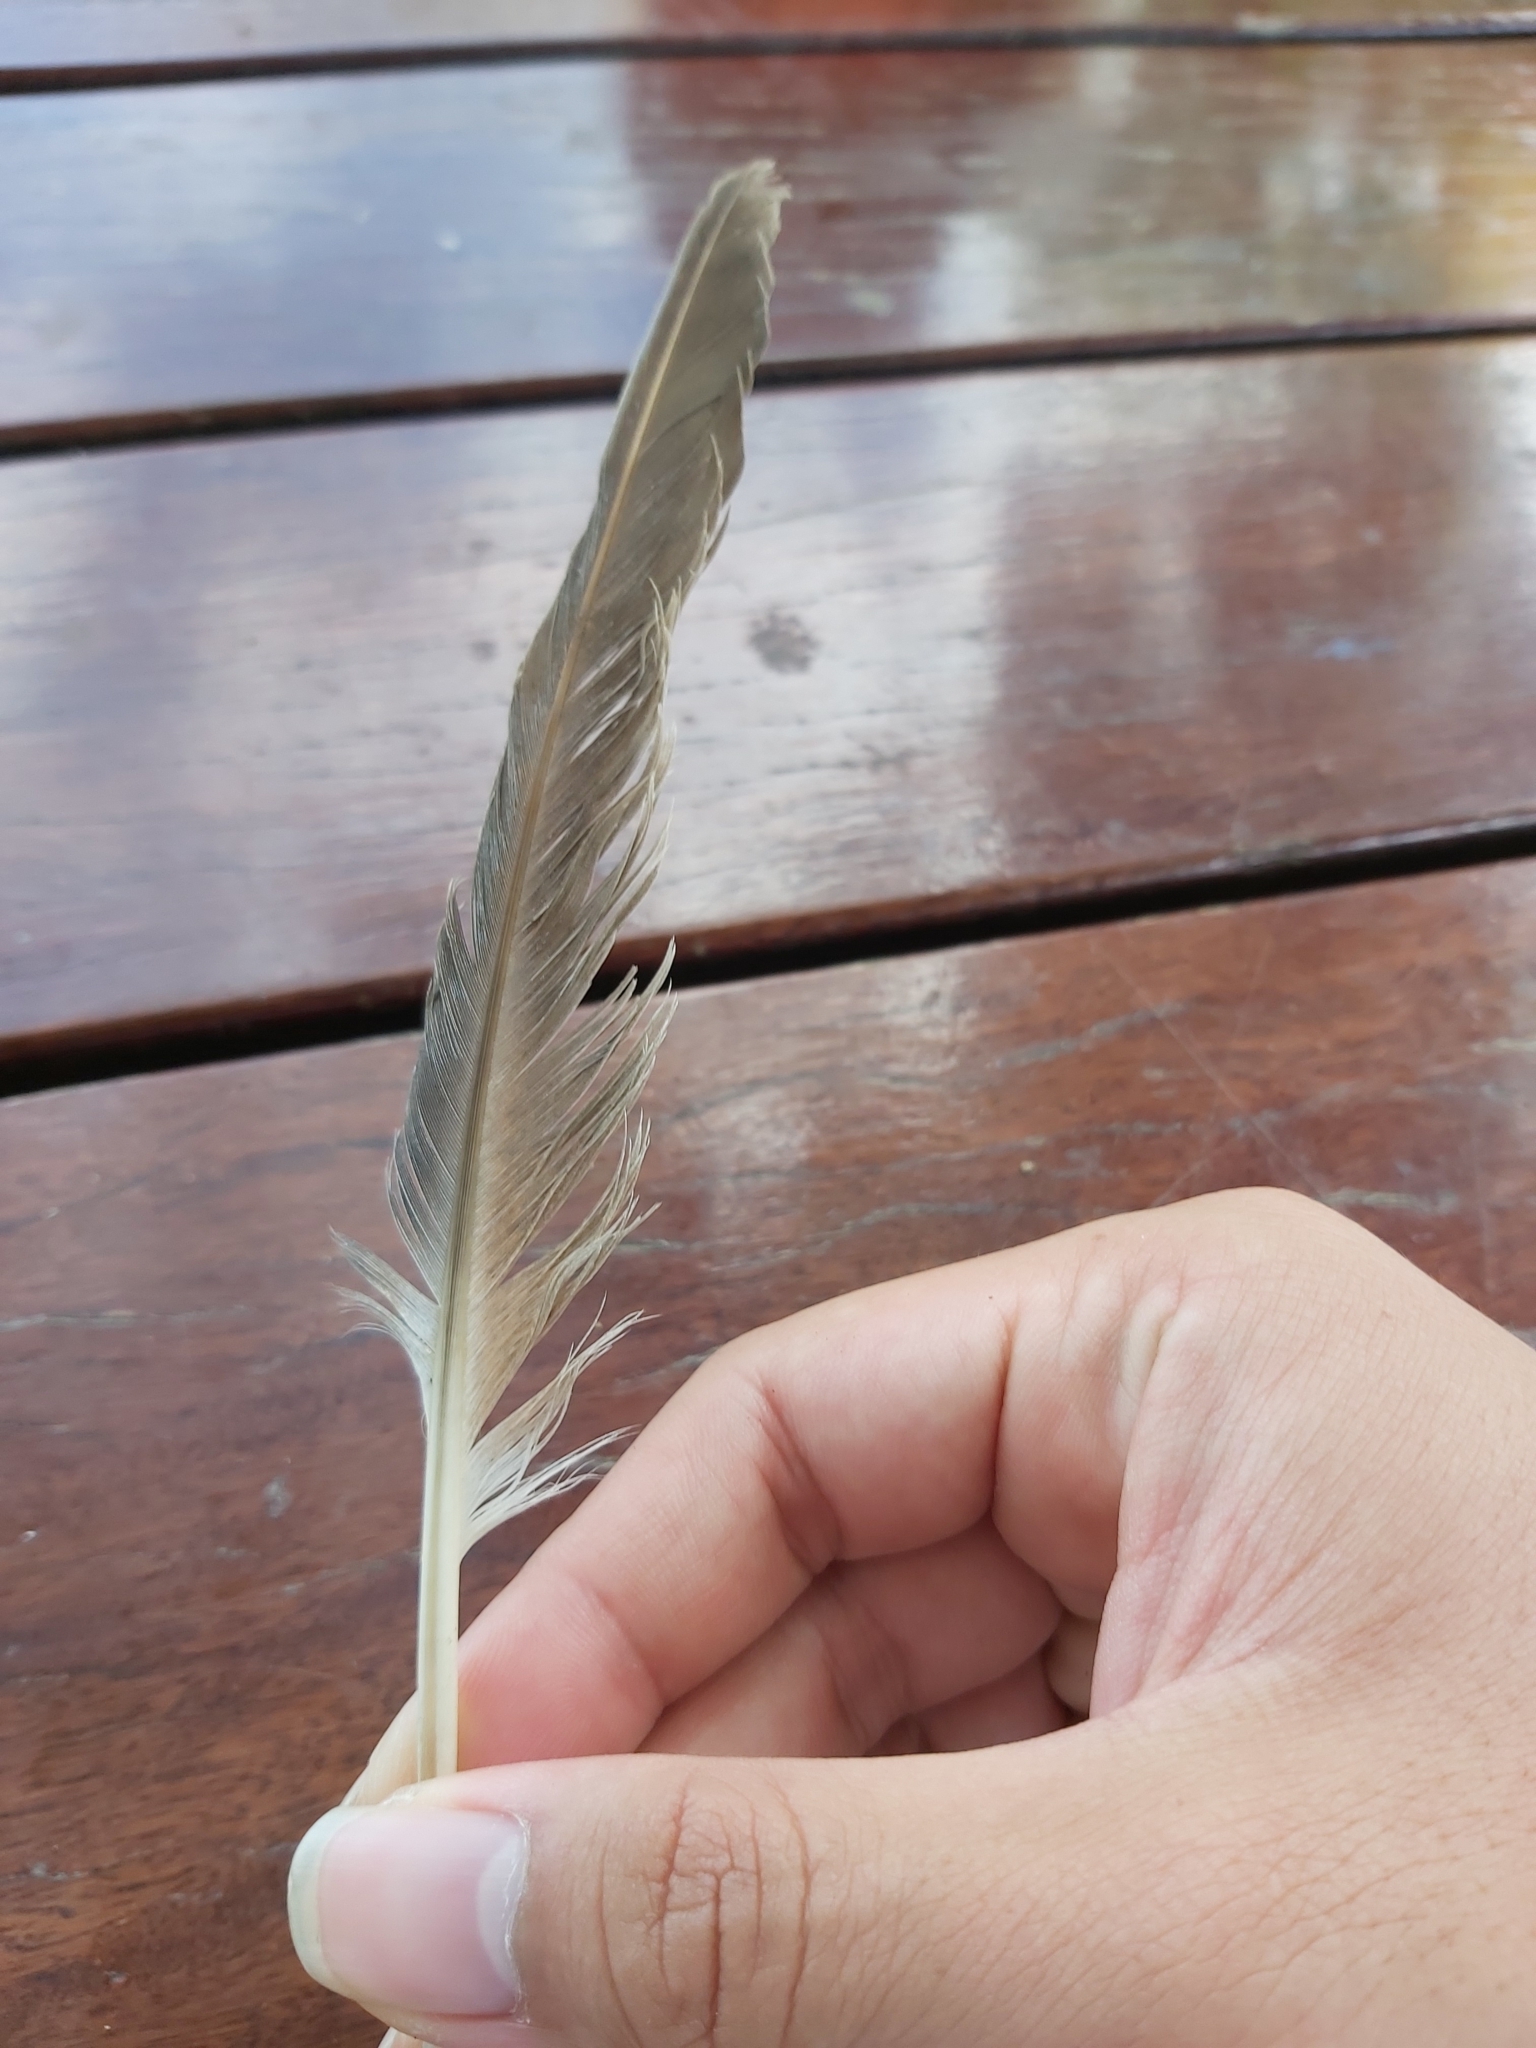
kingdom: Animalia
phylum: Chordata
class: Aves
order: Columbiformes
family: Columbidae
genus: Columba
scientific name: Columba livia
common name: Rock pigeon
